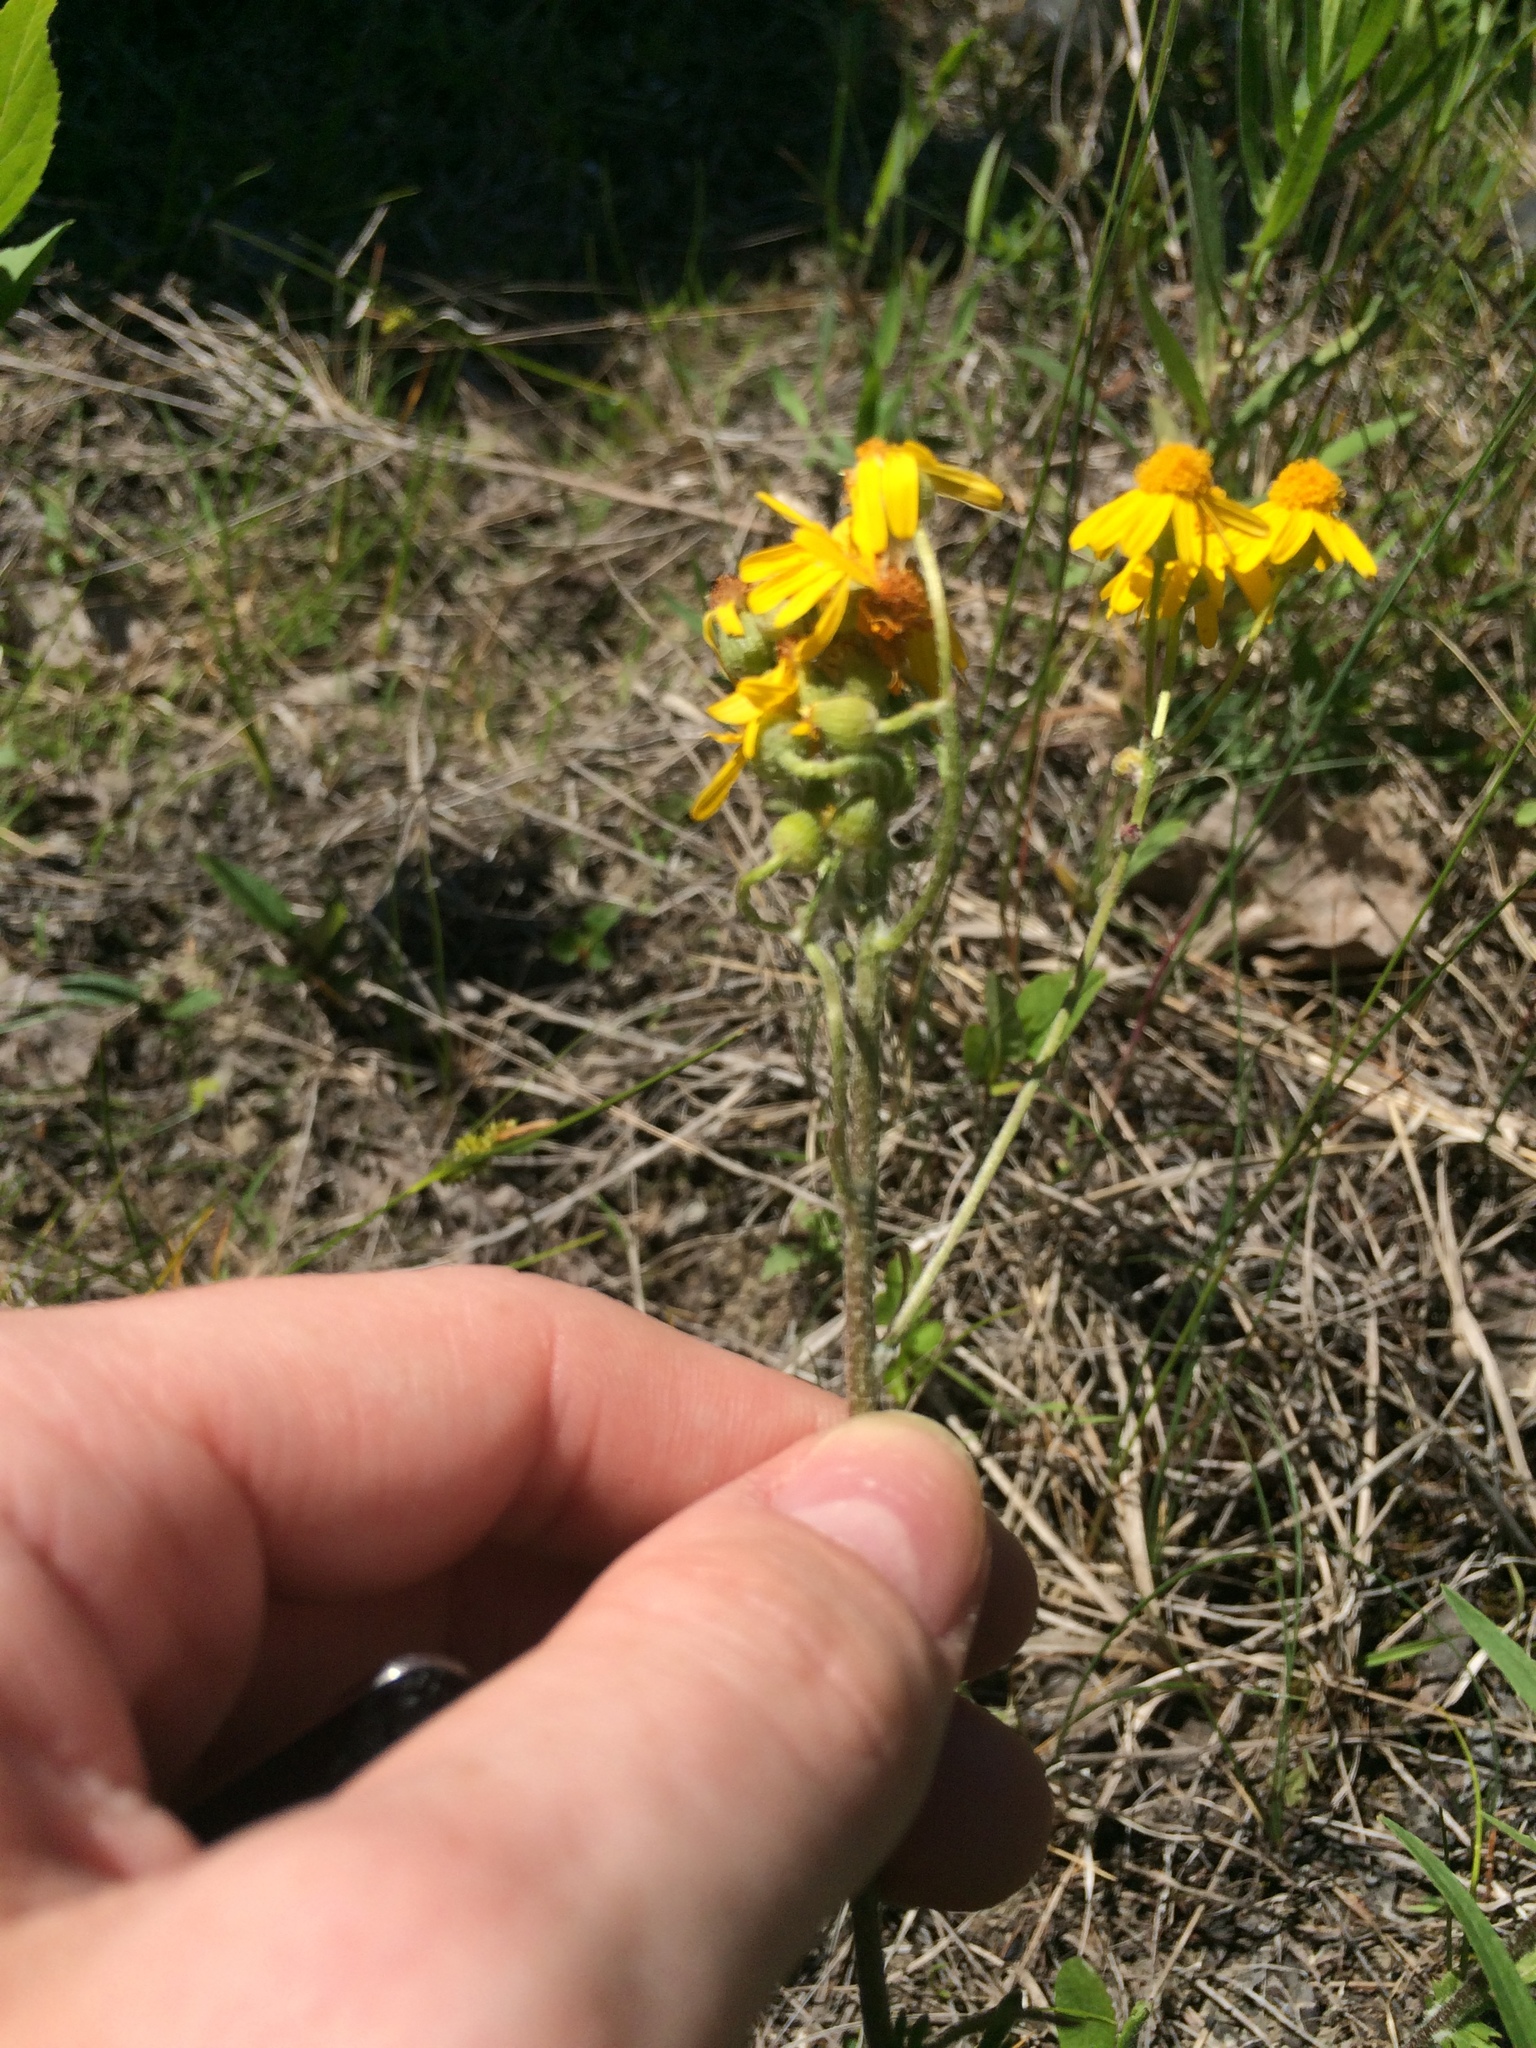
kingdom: Plantae
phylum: Tracheophyta
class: Magnoliopsida
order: Asterales
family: Asteraceae
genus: Packera
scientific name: Packera paupercula
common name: Balsam groundsel
